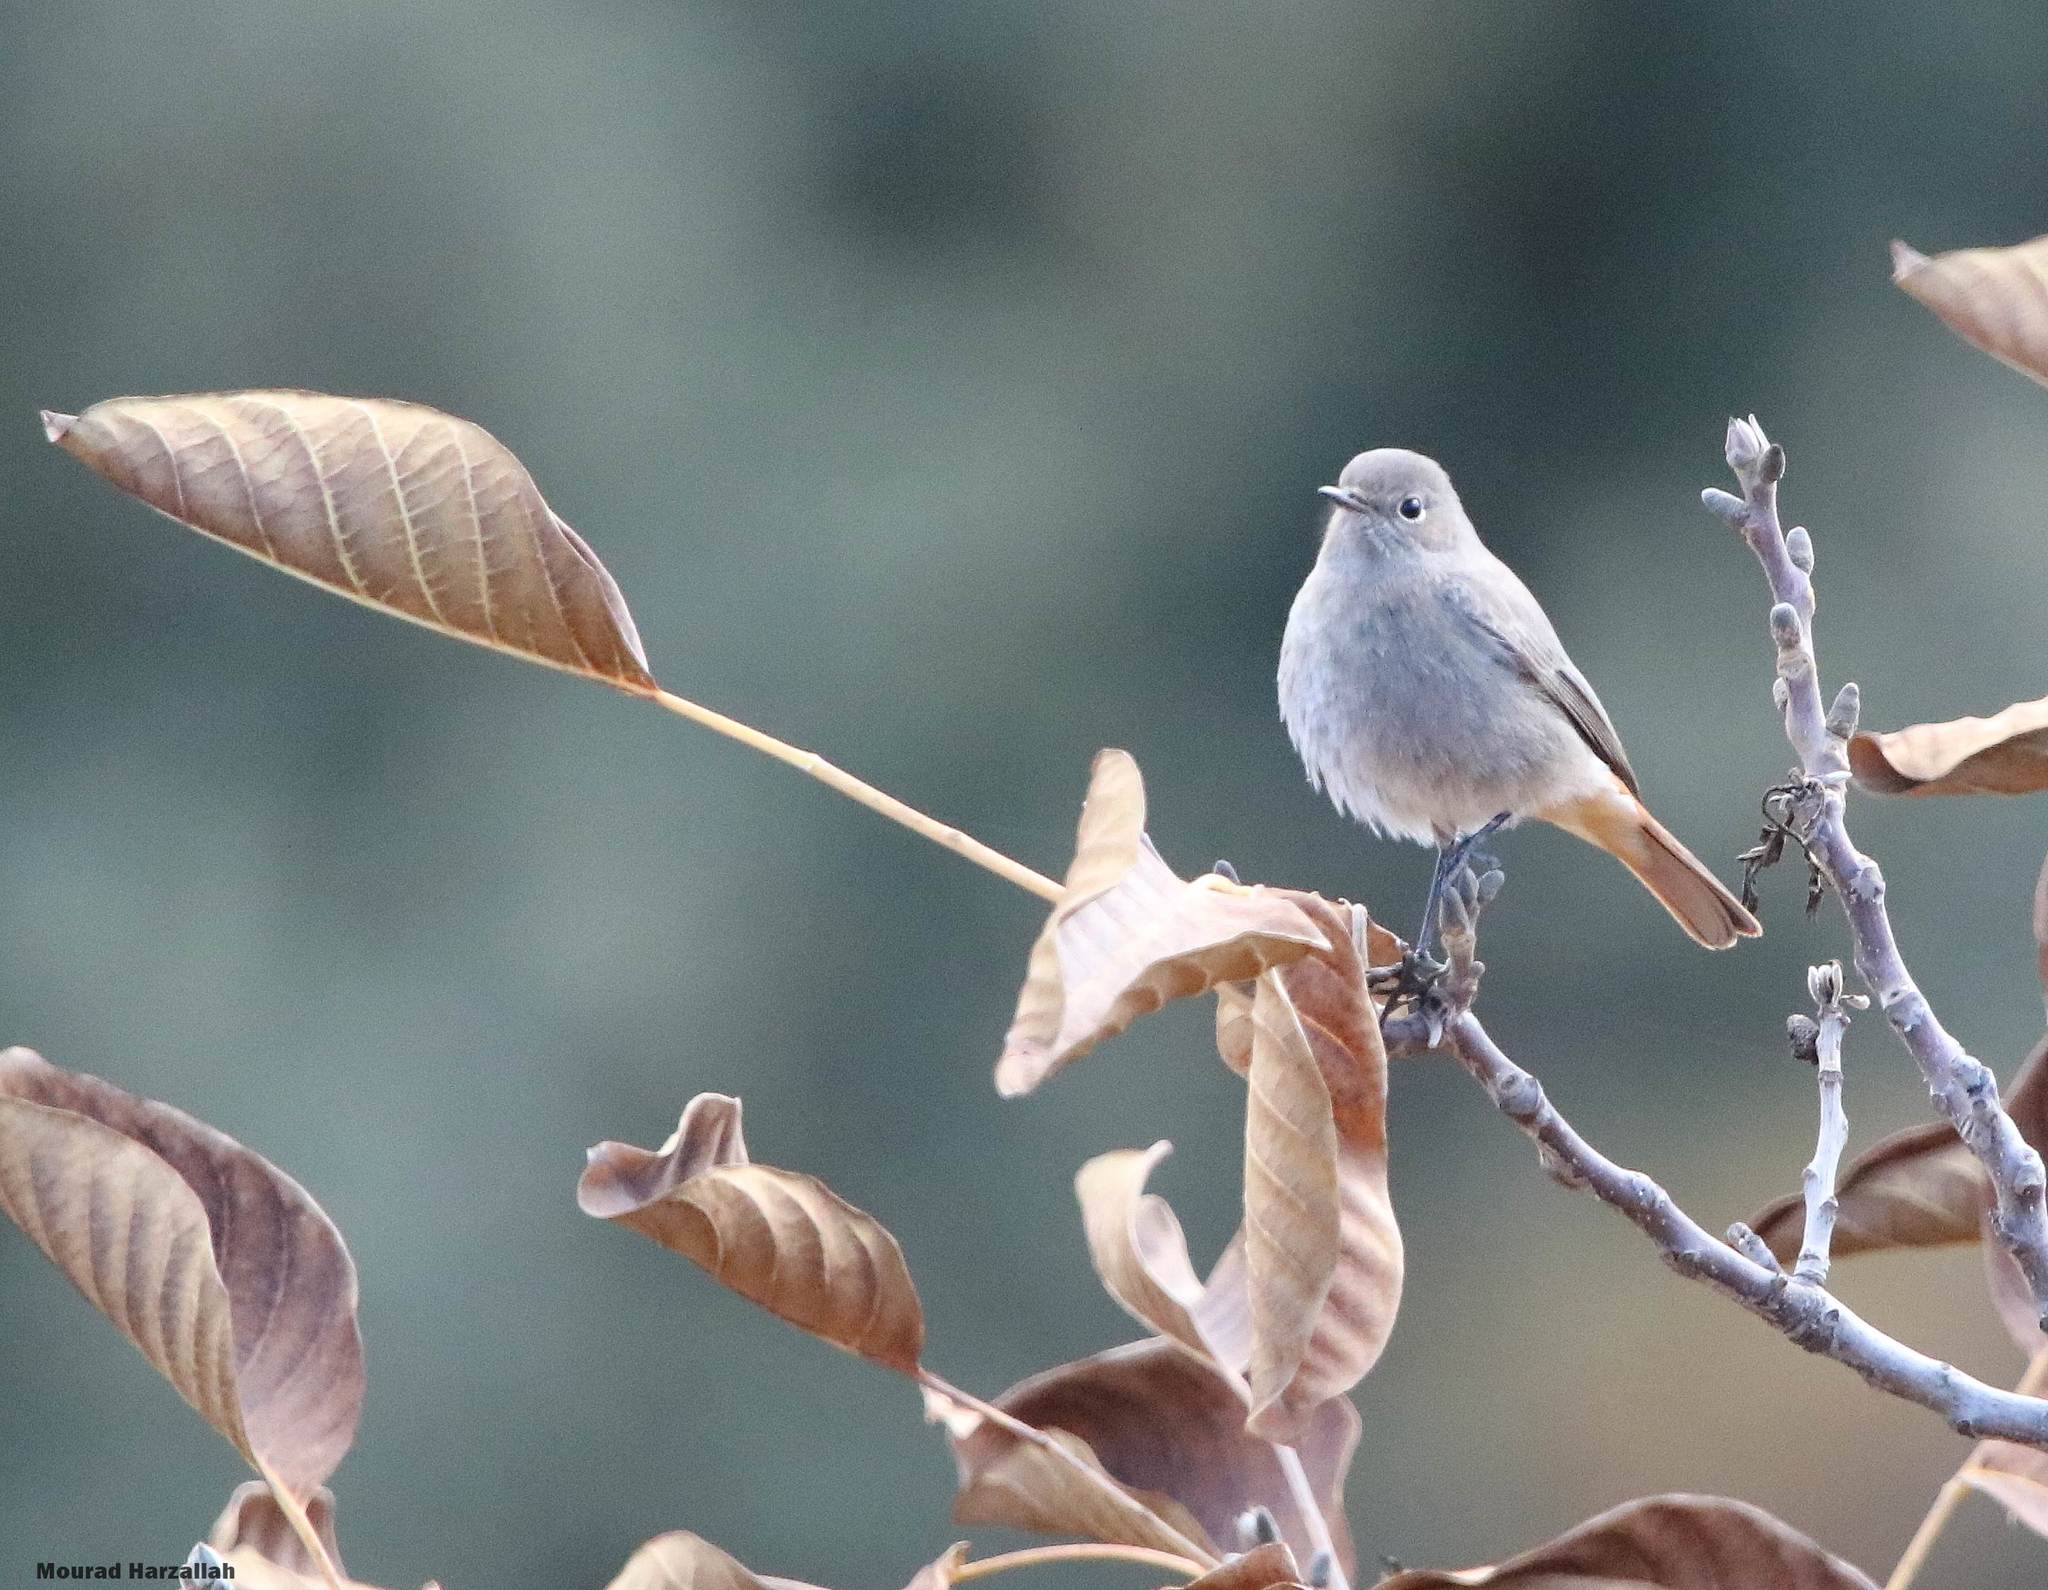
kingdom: Animalia
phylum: Chordata
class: Aves
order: Passeriformes
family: Muscicapidae
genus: Phoenicurus
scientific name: Phoenicurus ochruros
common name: Black redstart
